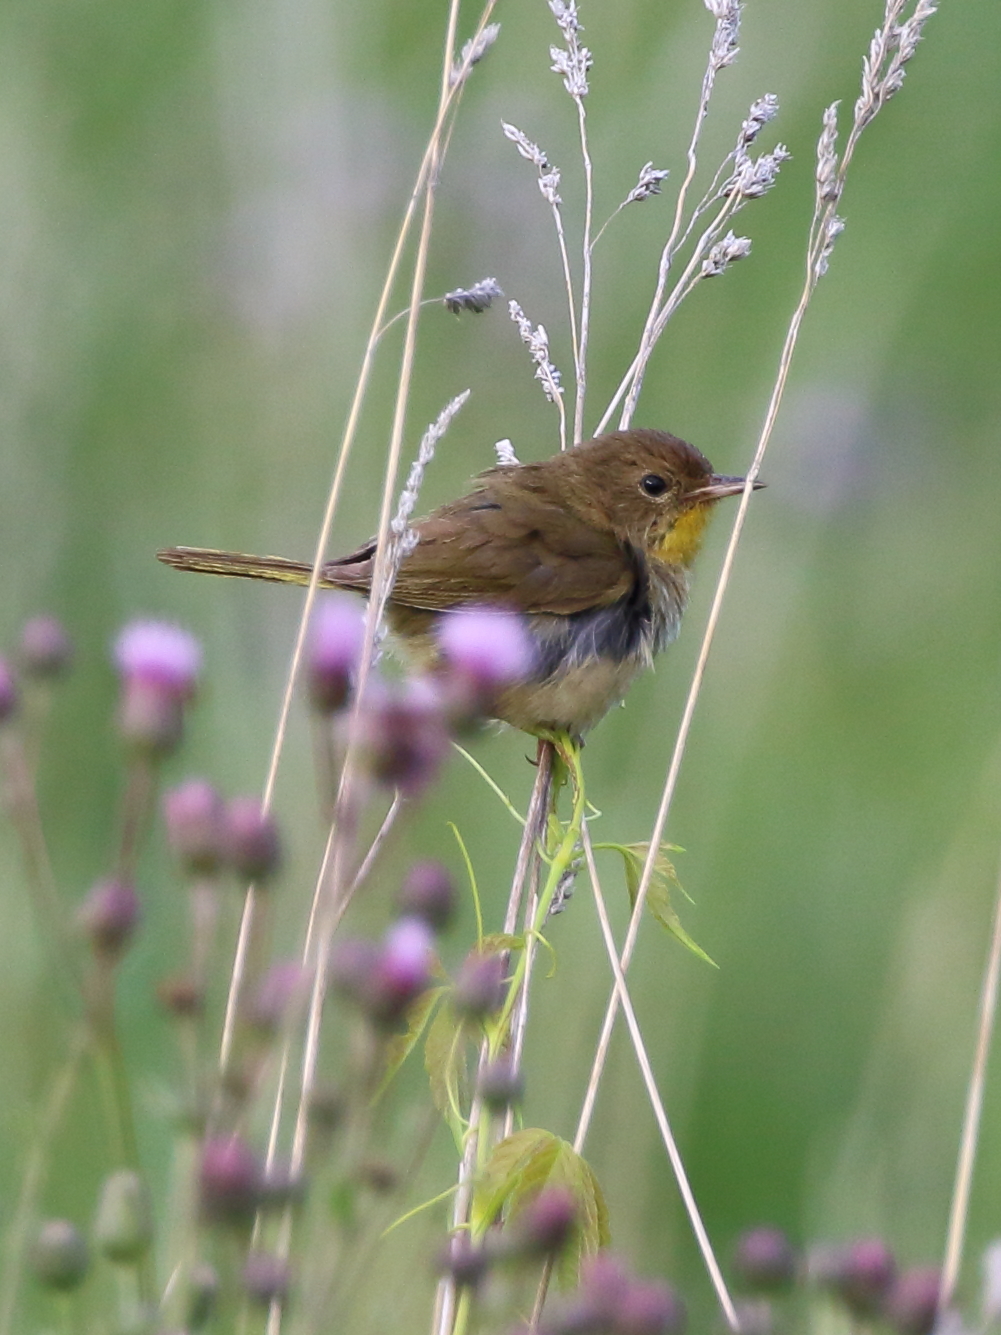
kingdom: Animalia
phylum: Chordata
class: Aves
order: Passeriformes
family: Parulidae
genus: Geothlypis
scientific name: Geothlypis trichas
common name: Common yellowthroat
